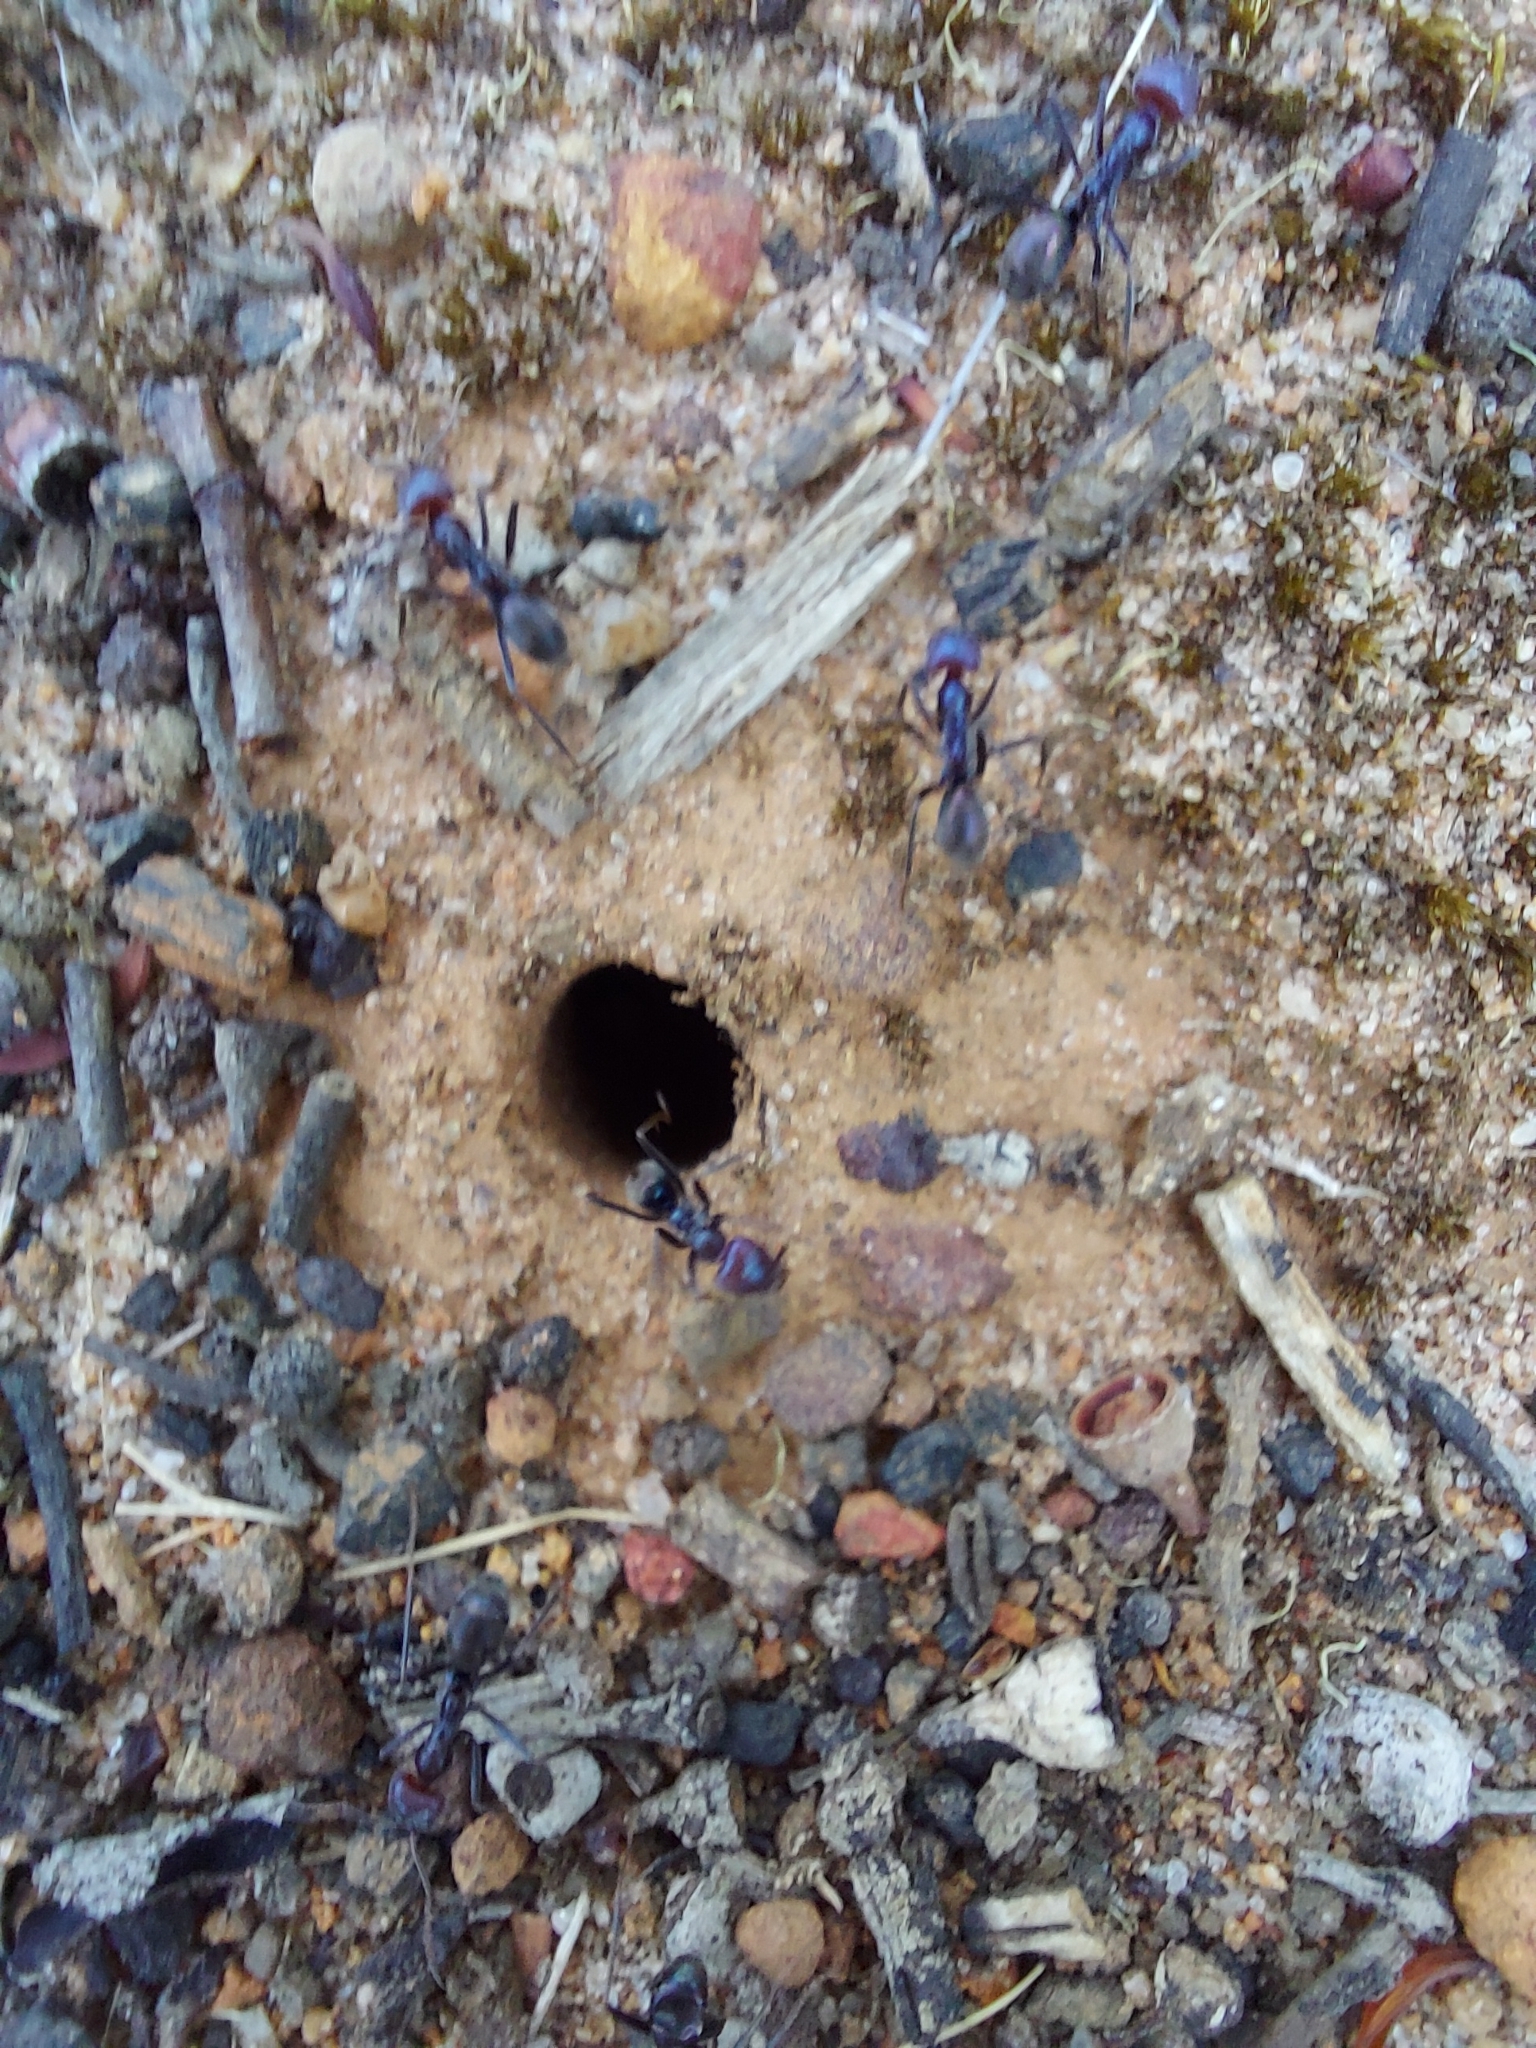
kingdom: Animalia
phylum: Arthropoda
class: Insecta
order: Hymenoptera
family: Formicidae
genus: Iridomyrmex
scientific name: Iridomyrmex purpureus
